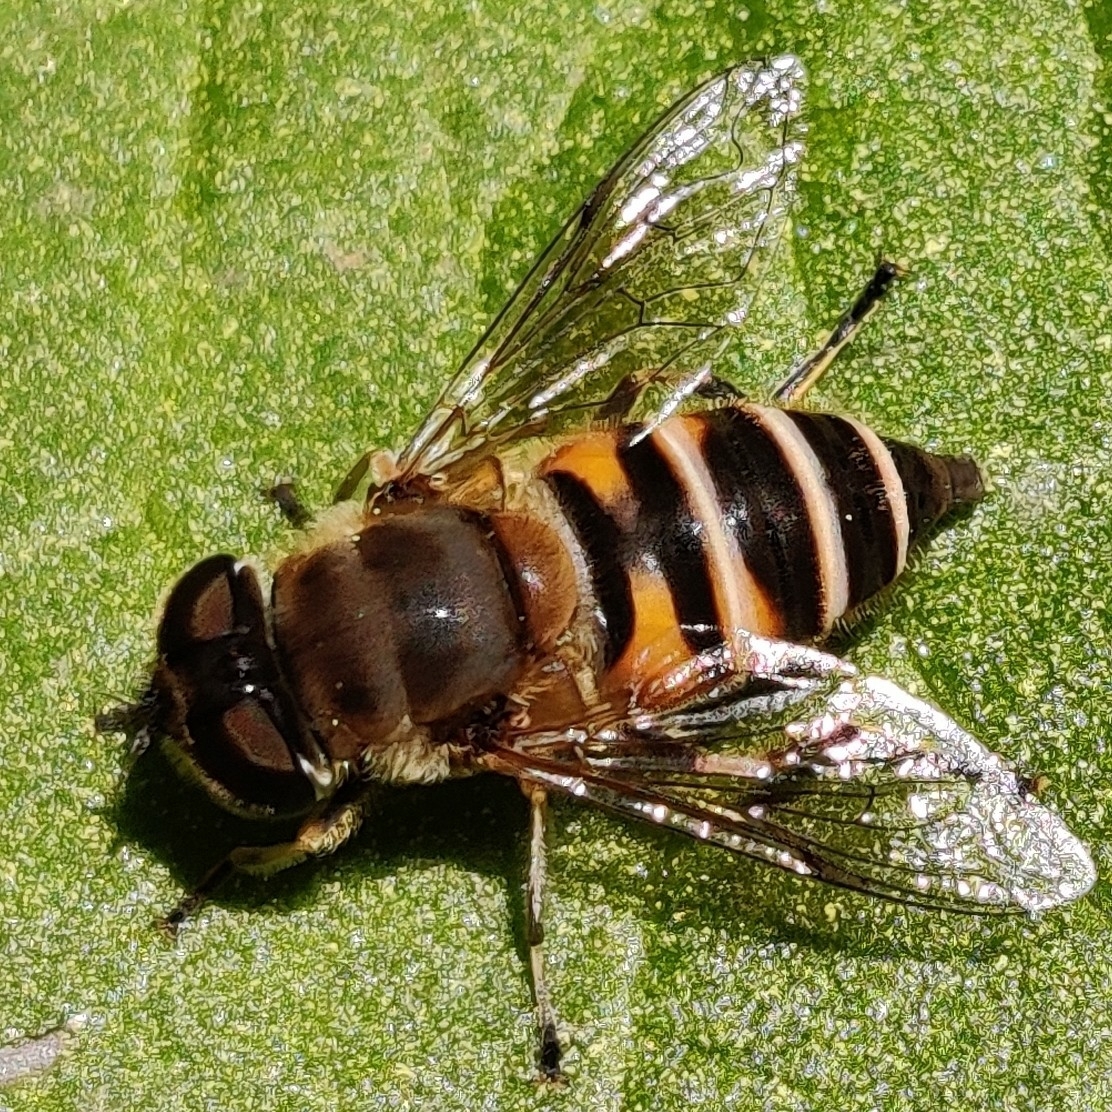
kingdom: Animalia
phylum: Arthropoda
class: Insecta
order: Diptera
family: Syrphidae
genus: Eristalis
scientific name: Eristalis cerealis
